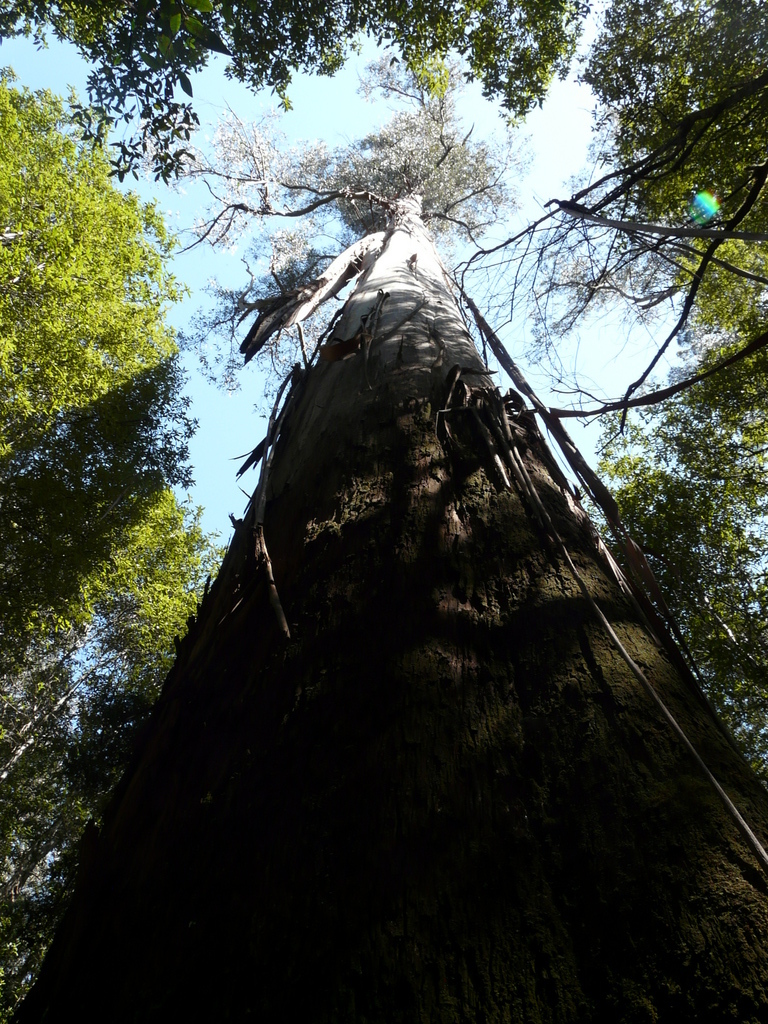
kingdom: Plantae
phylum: Tracheophyta
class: Magnoliopsida
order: Myrtales
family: Myrtaceae
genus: Eucalyptus
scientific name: Eucalyptus regnans
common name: Stringy gum
